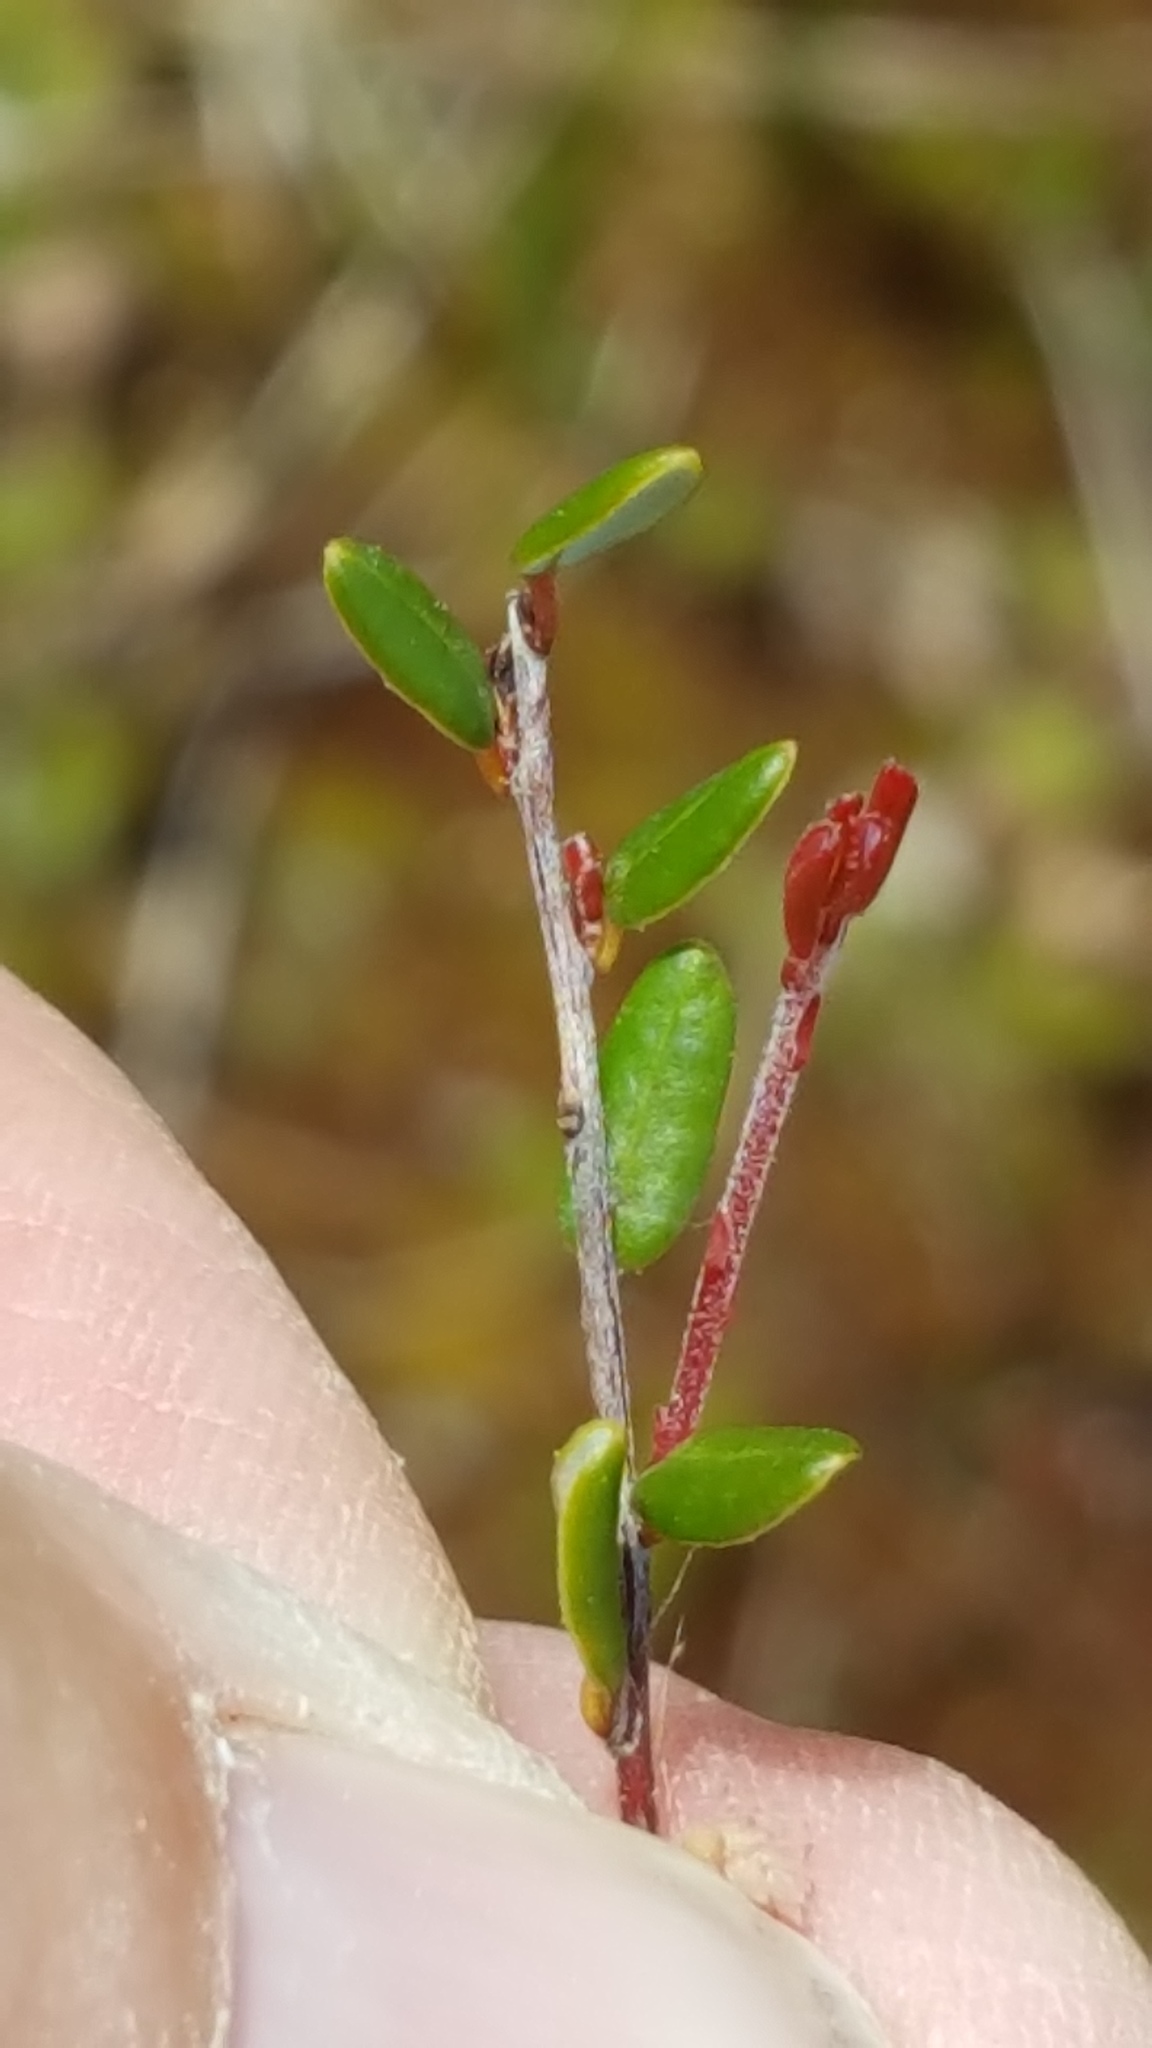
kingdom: Plantae
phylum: Tracheophyta
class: Magnoliopsida
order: Ericales
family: Ericaceae
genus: Vaccinium
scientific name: Vaccinium oxycoccos
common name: Cranberry
